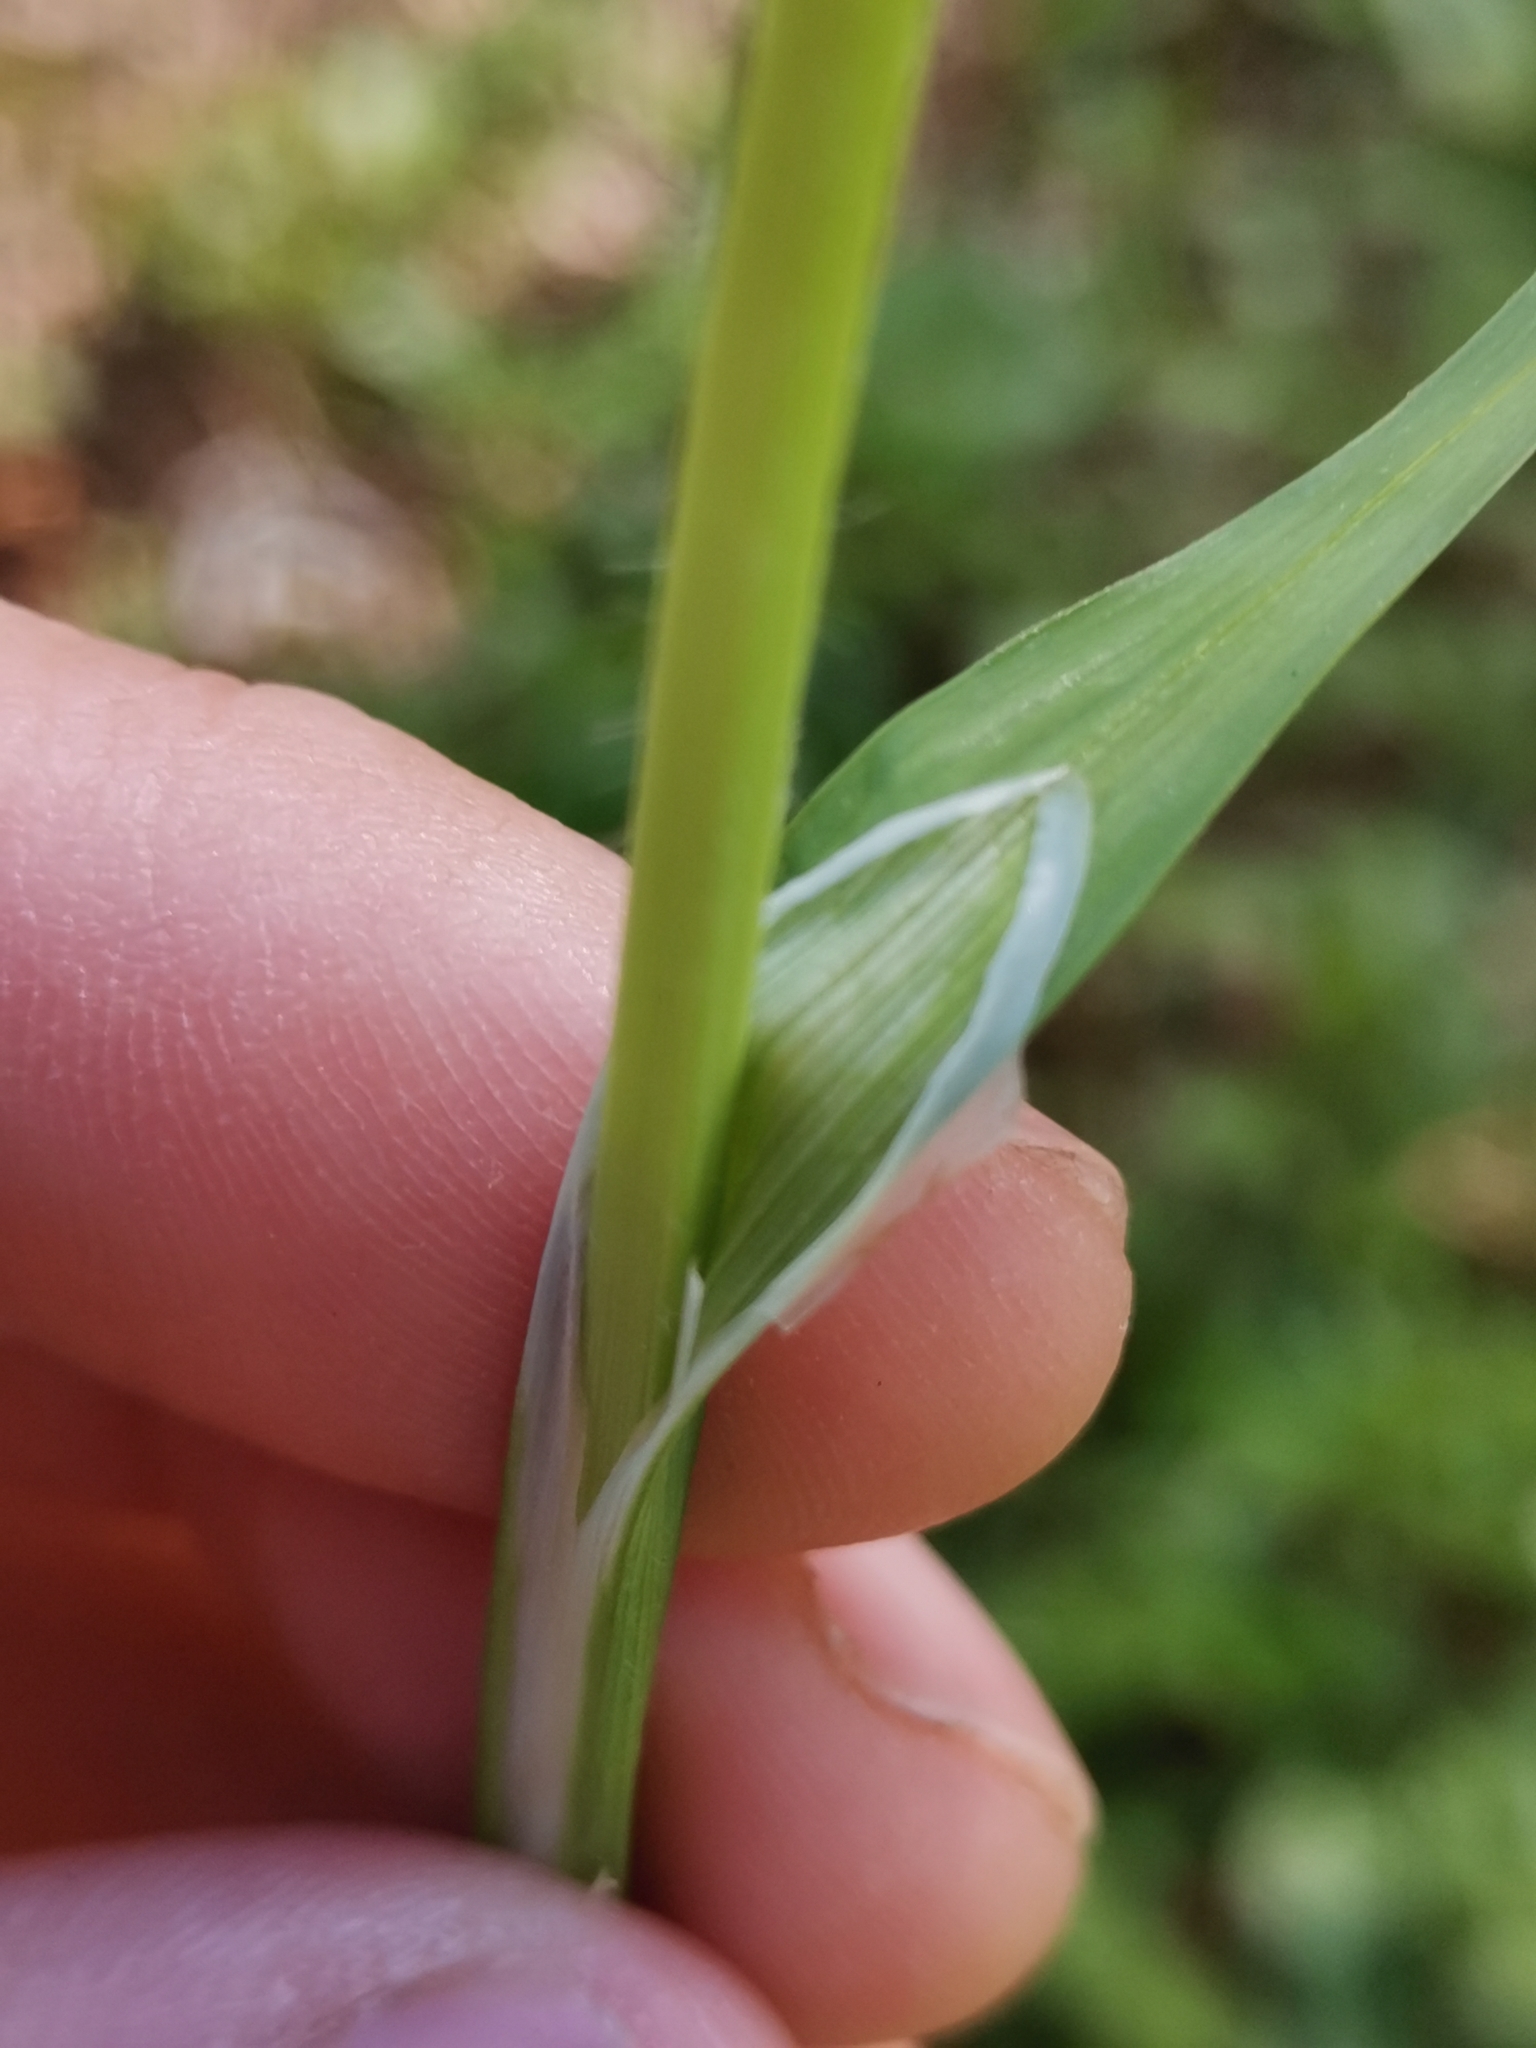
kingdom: Plantae
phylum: Tracheophyta
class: Liliopsida
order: Poales
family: Cyperaceae
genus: Carex
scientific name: Carex pilosa
